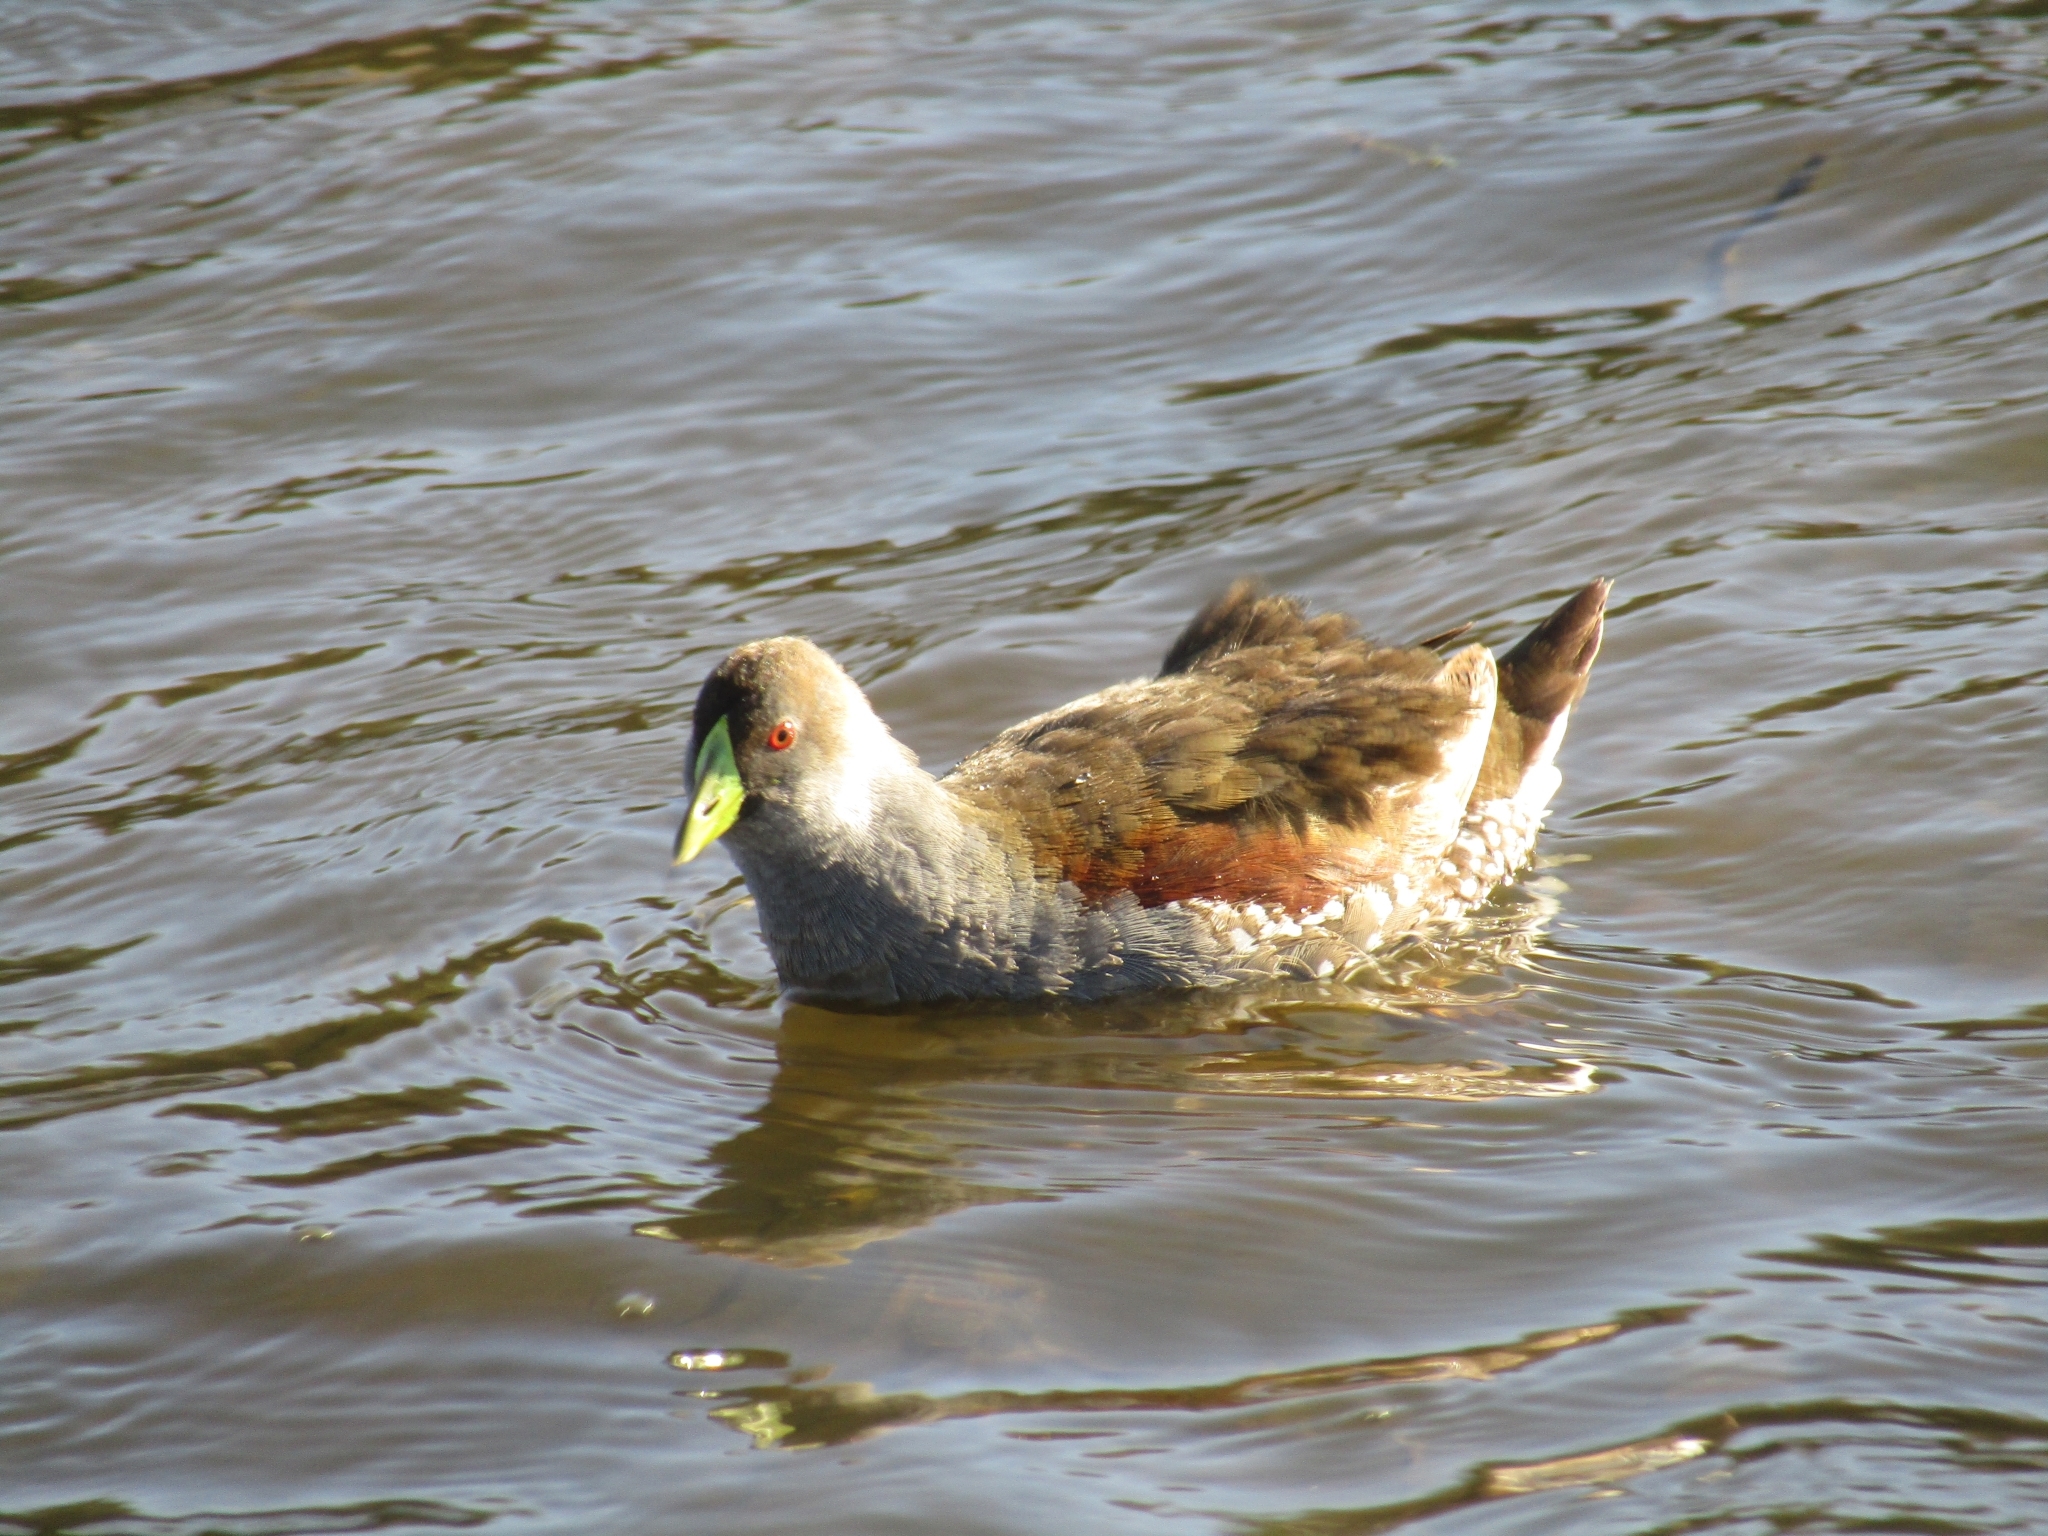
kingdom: Animalia
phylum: Chordata
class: Aves
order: Gruiformes
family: Rallidae
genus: Gallinula
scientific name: Gallinula melanops
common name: Spot-flanked gallinule
